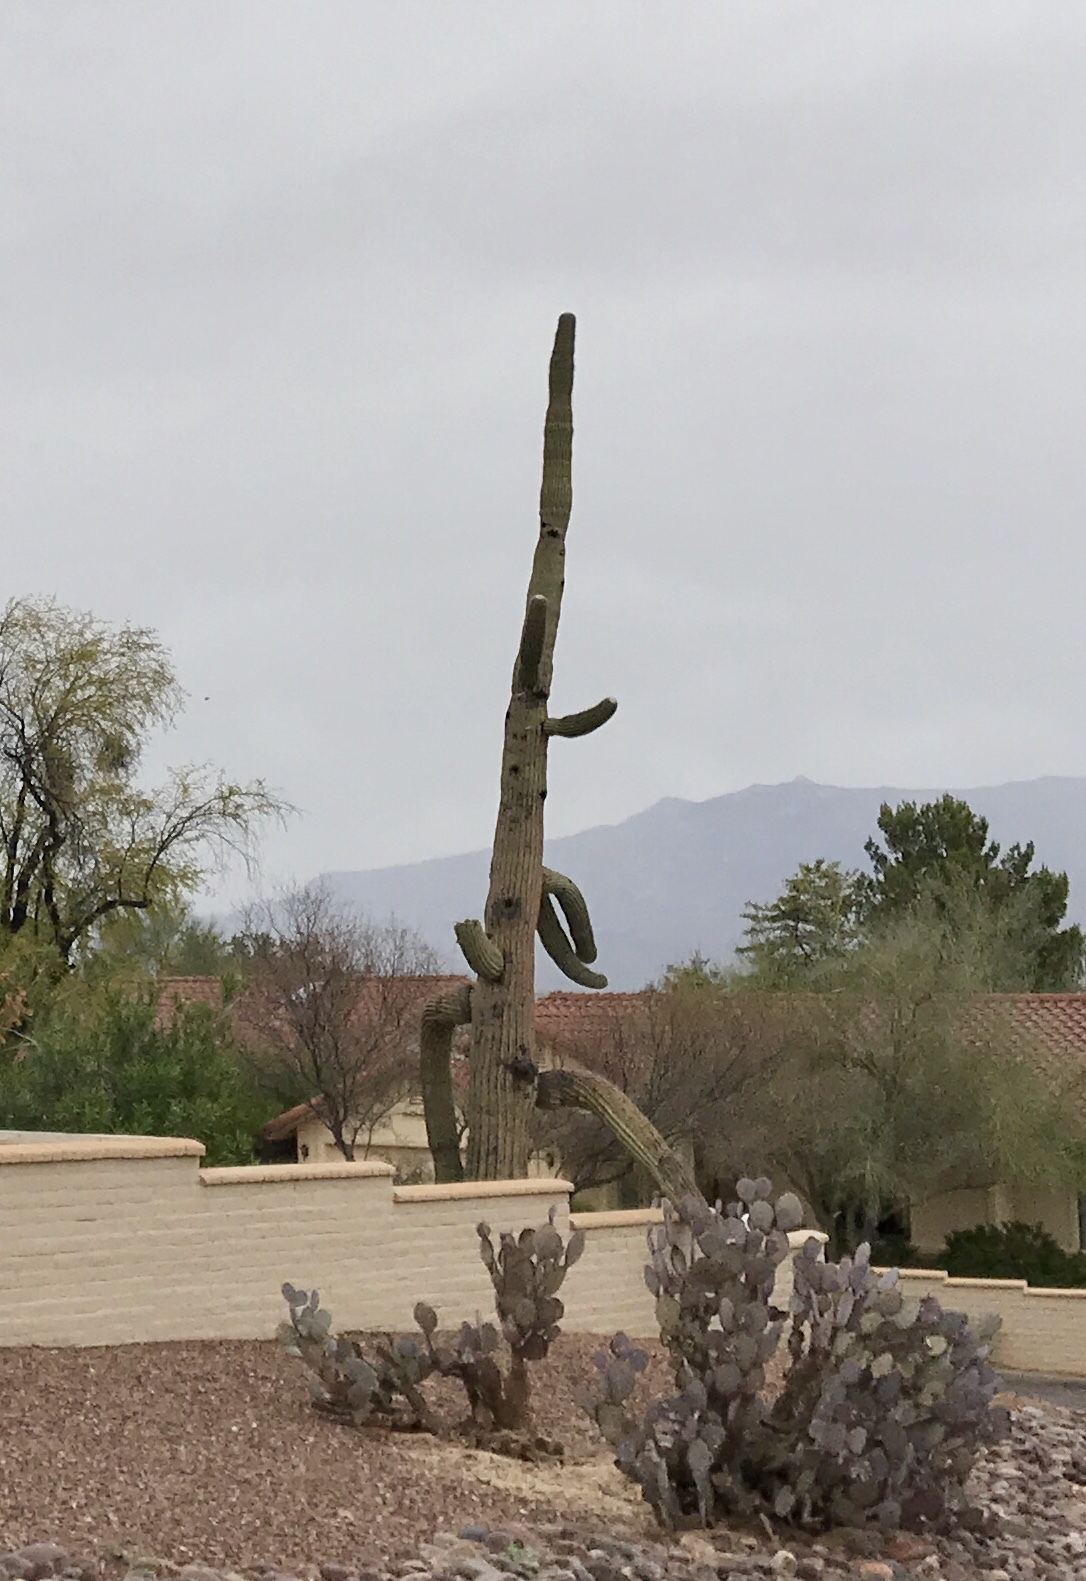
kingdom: Plantae
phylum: Tracheophyta
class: Magnoliopsida
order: Caryophyllales
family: Cactaceae
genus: Carnegiea
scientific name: Carnegiea gigantea
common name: Saguaro
